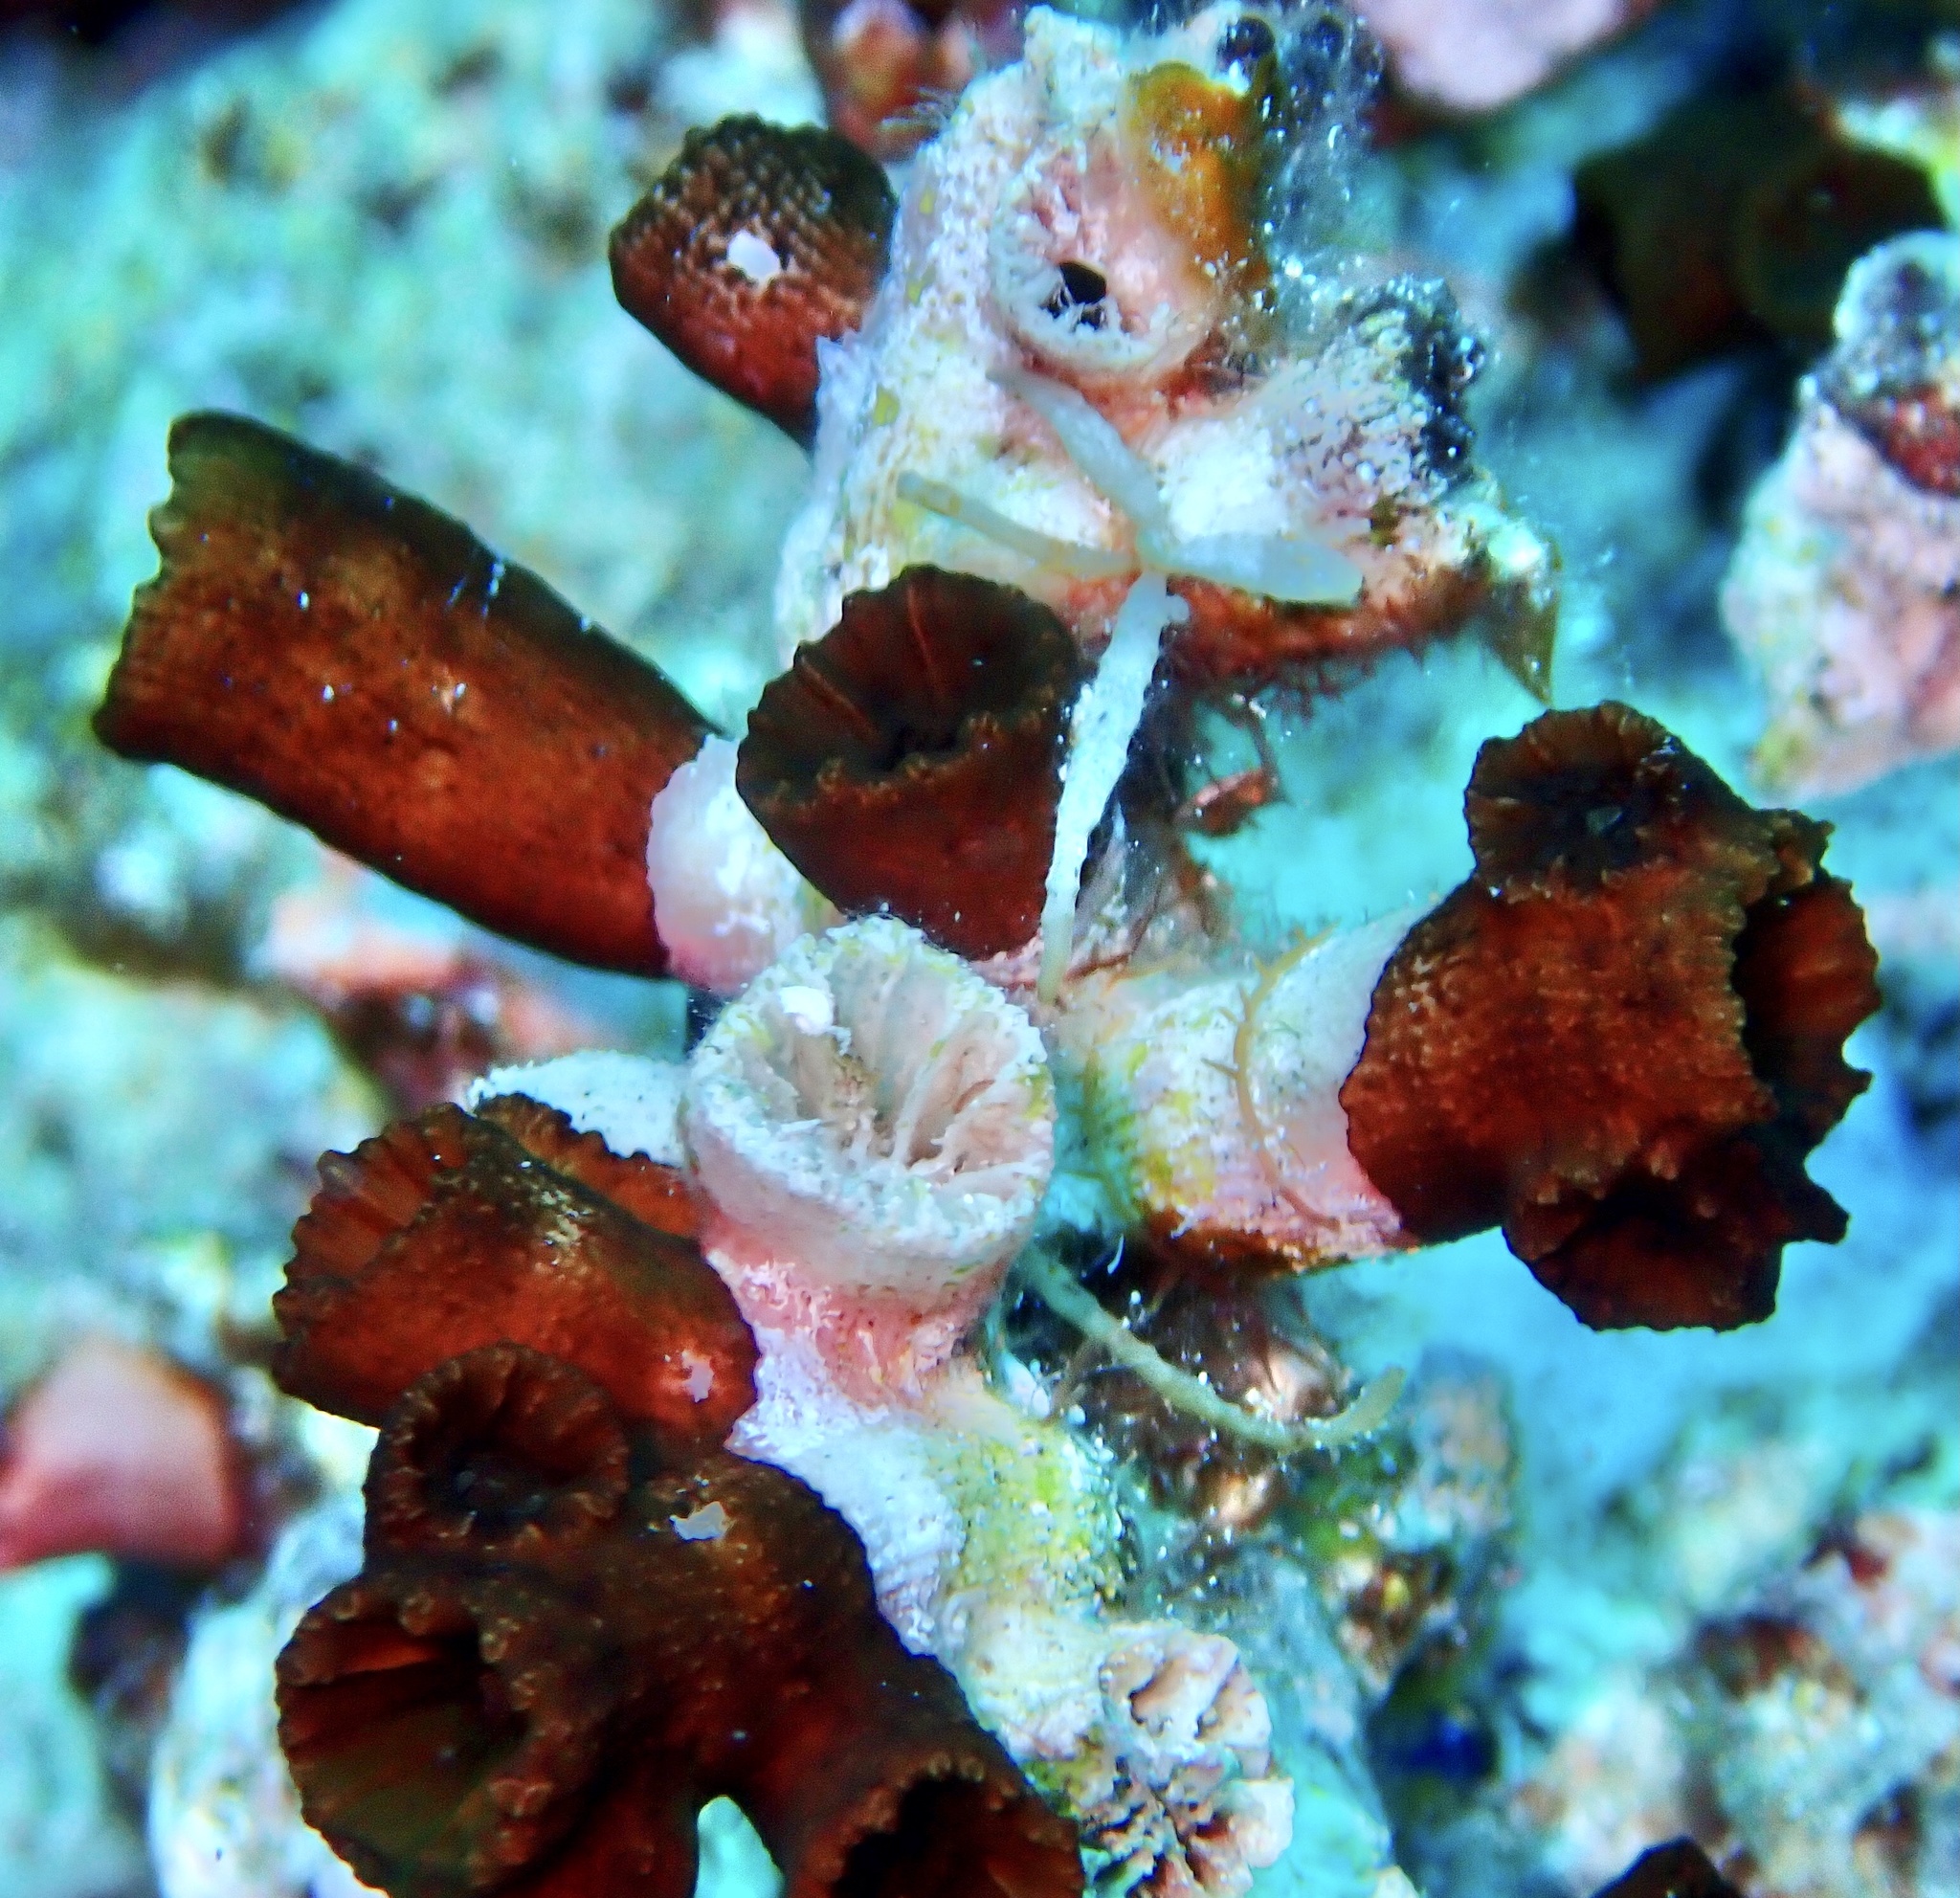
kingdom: Animalia
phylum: Cnidaria
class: Anthozoa
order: Scleractinia
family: Dendrophylliidae
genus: Tubastraea
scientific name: Tubastraea micranthus
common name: Black sun coral
